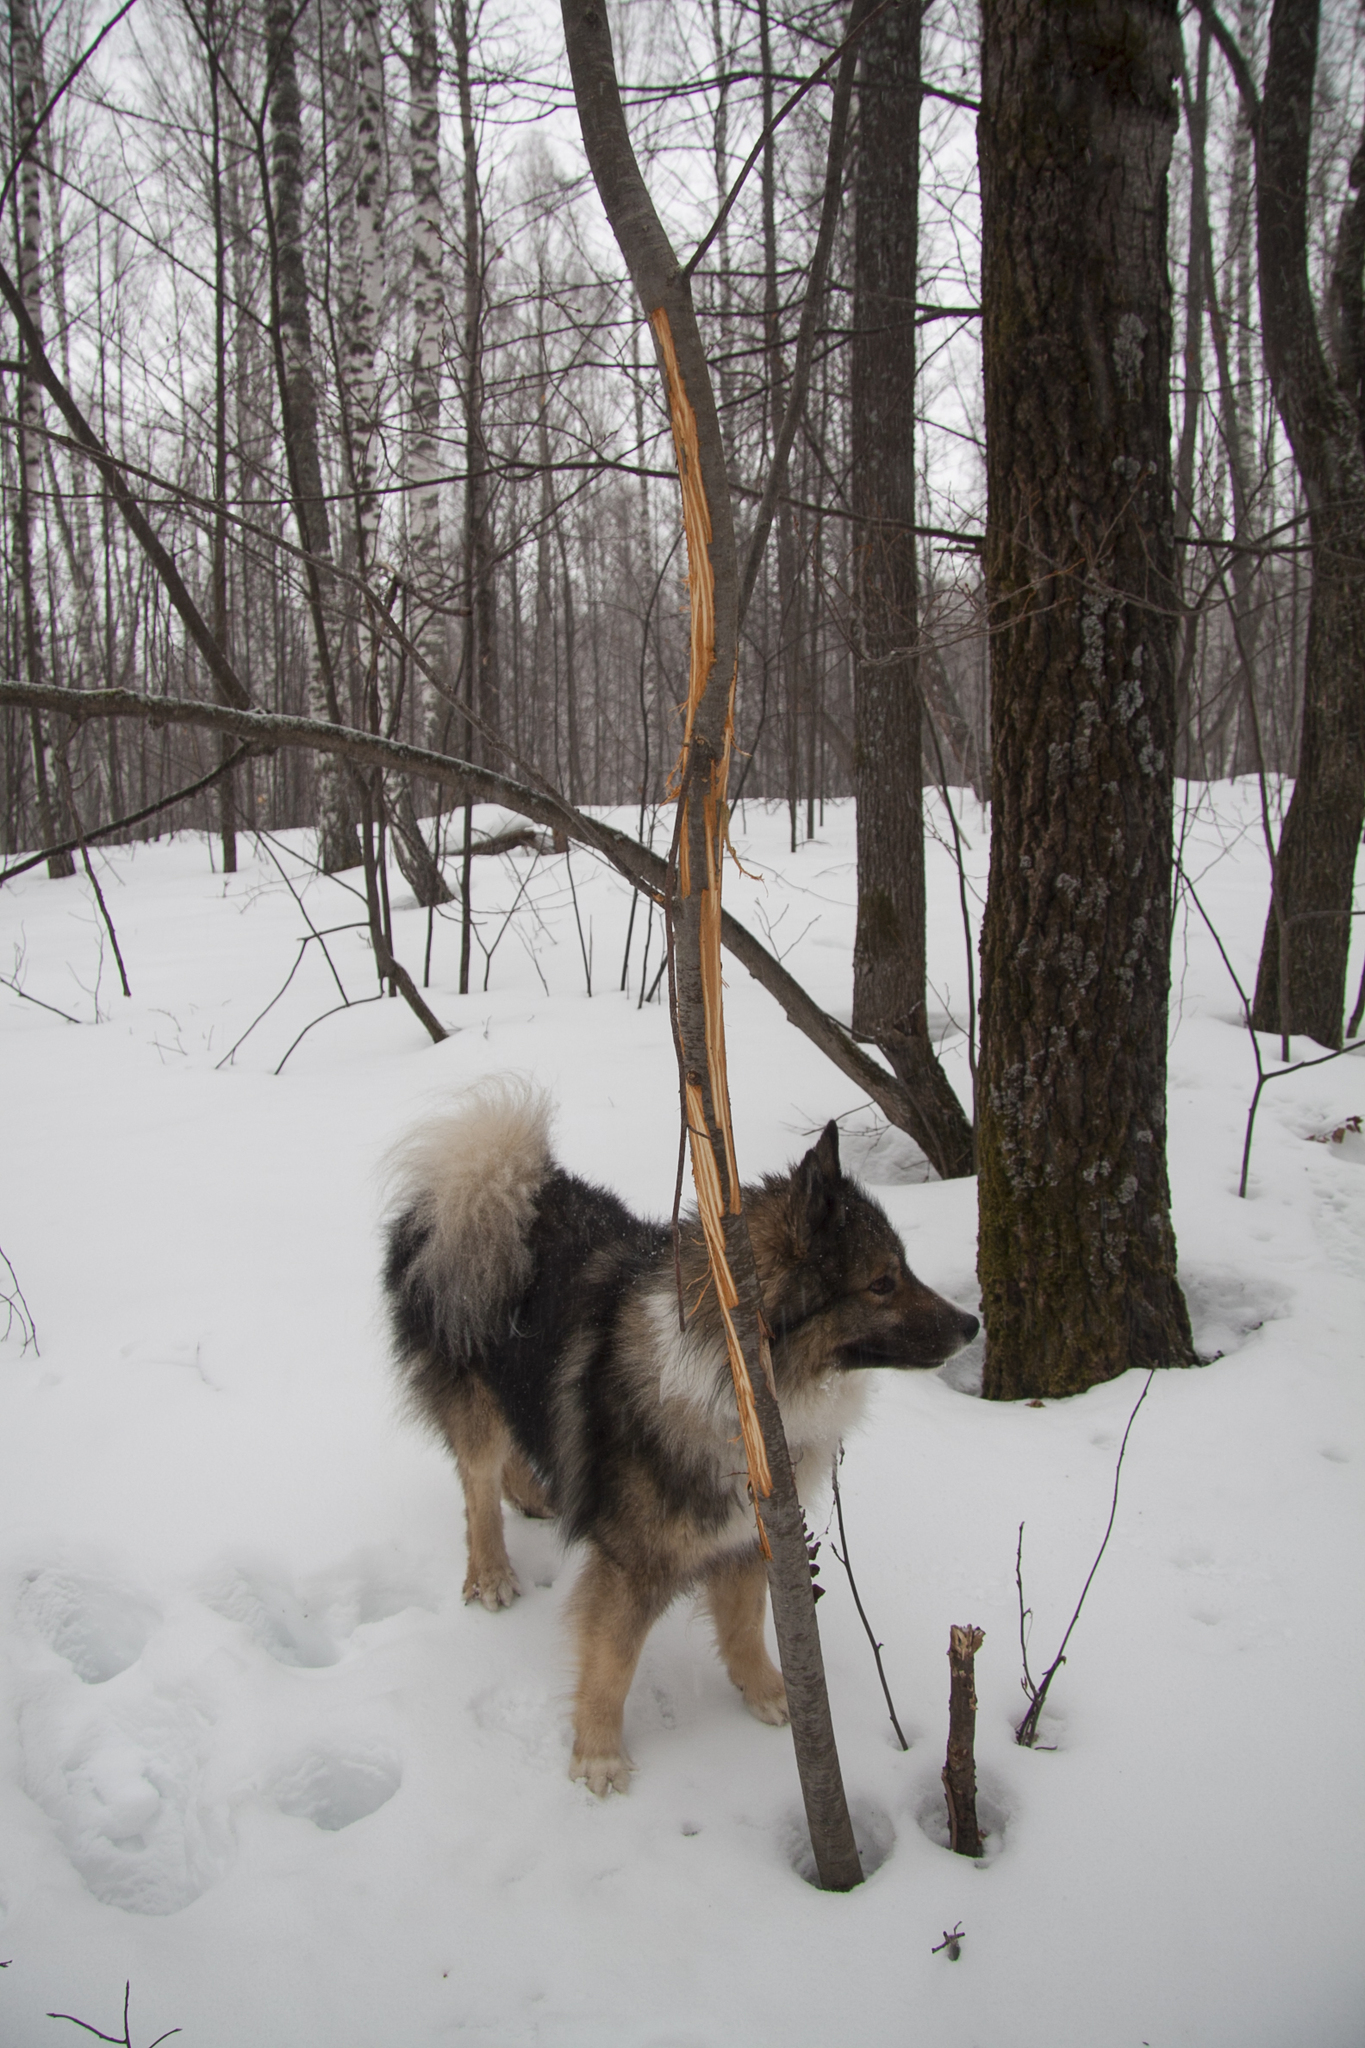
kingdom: Animalia
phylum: Chordata
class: Mammalia
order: Artiodactyla
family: Cervidae
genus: Alces
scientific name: Alces alces
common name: Moose
